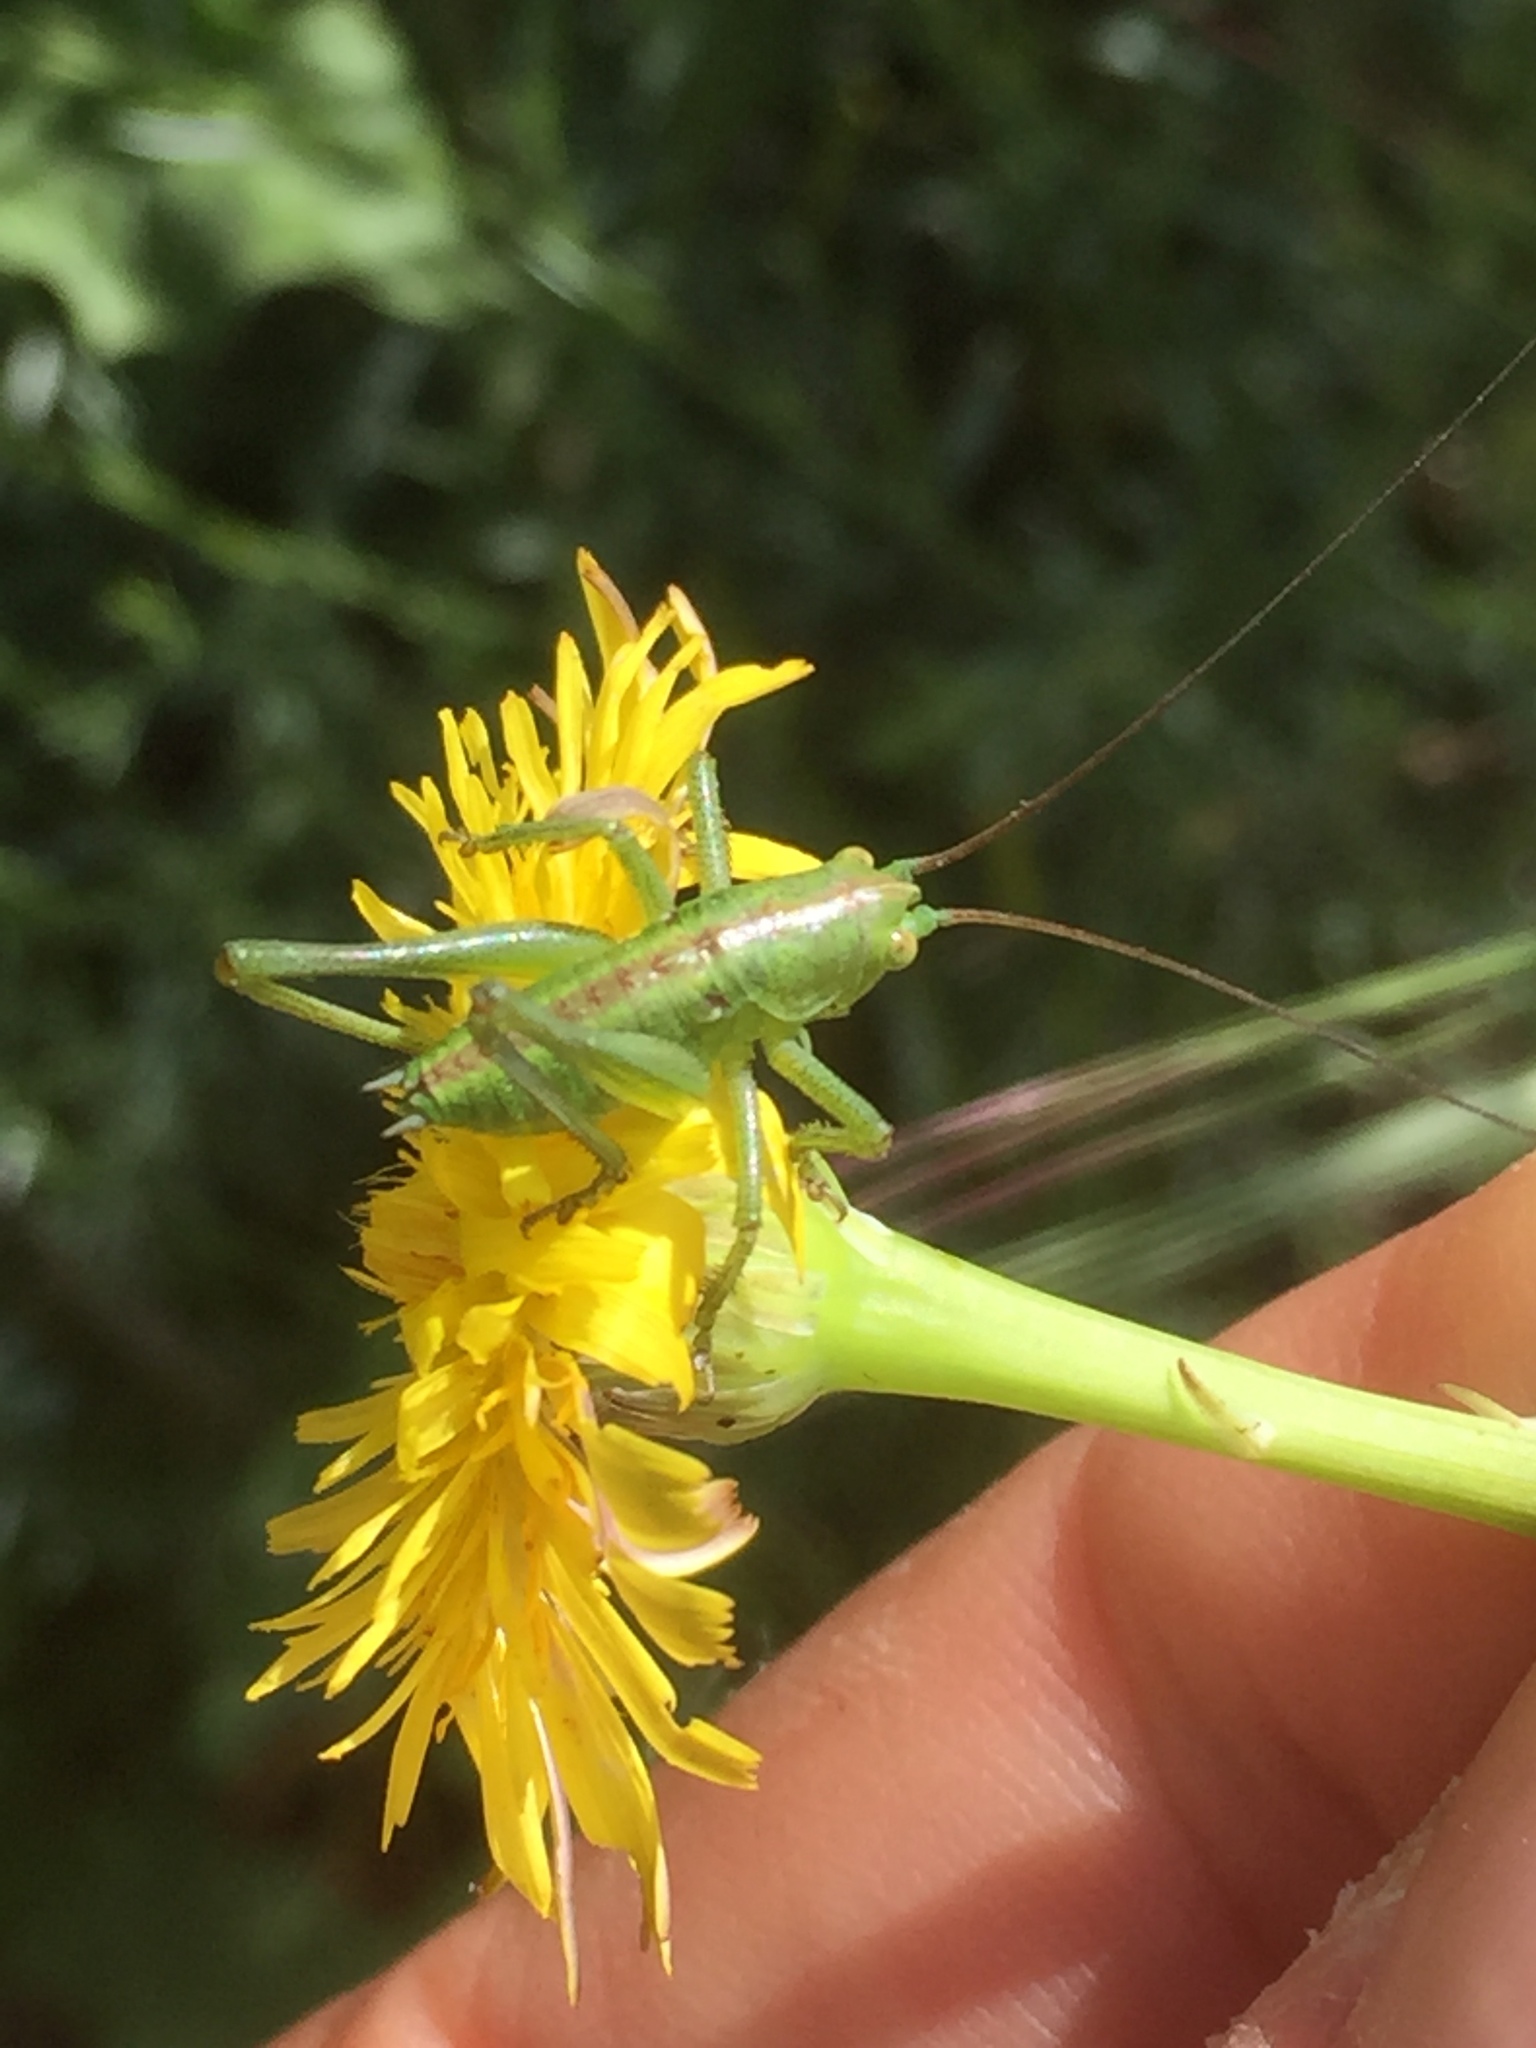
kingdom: Animalia
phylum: Arthropoda
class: Insecta
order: Orthoptera
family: Tettigoniidae
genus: Tettigonia
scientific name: Tettigonia viridissima
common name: Great green bush-cricket
